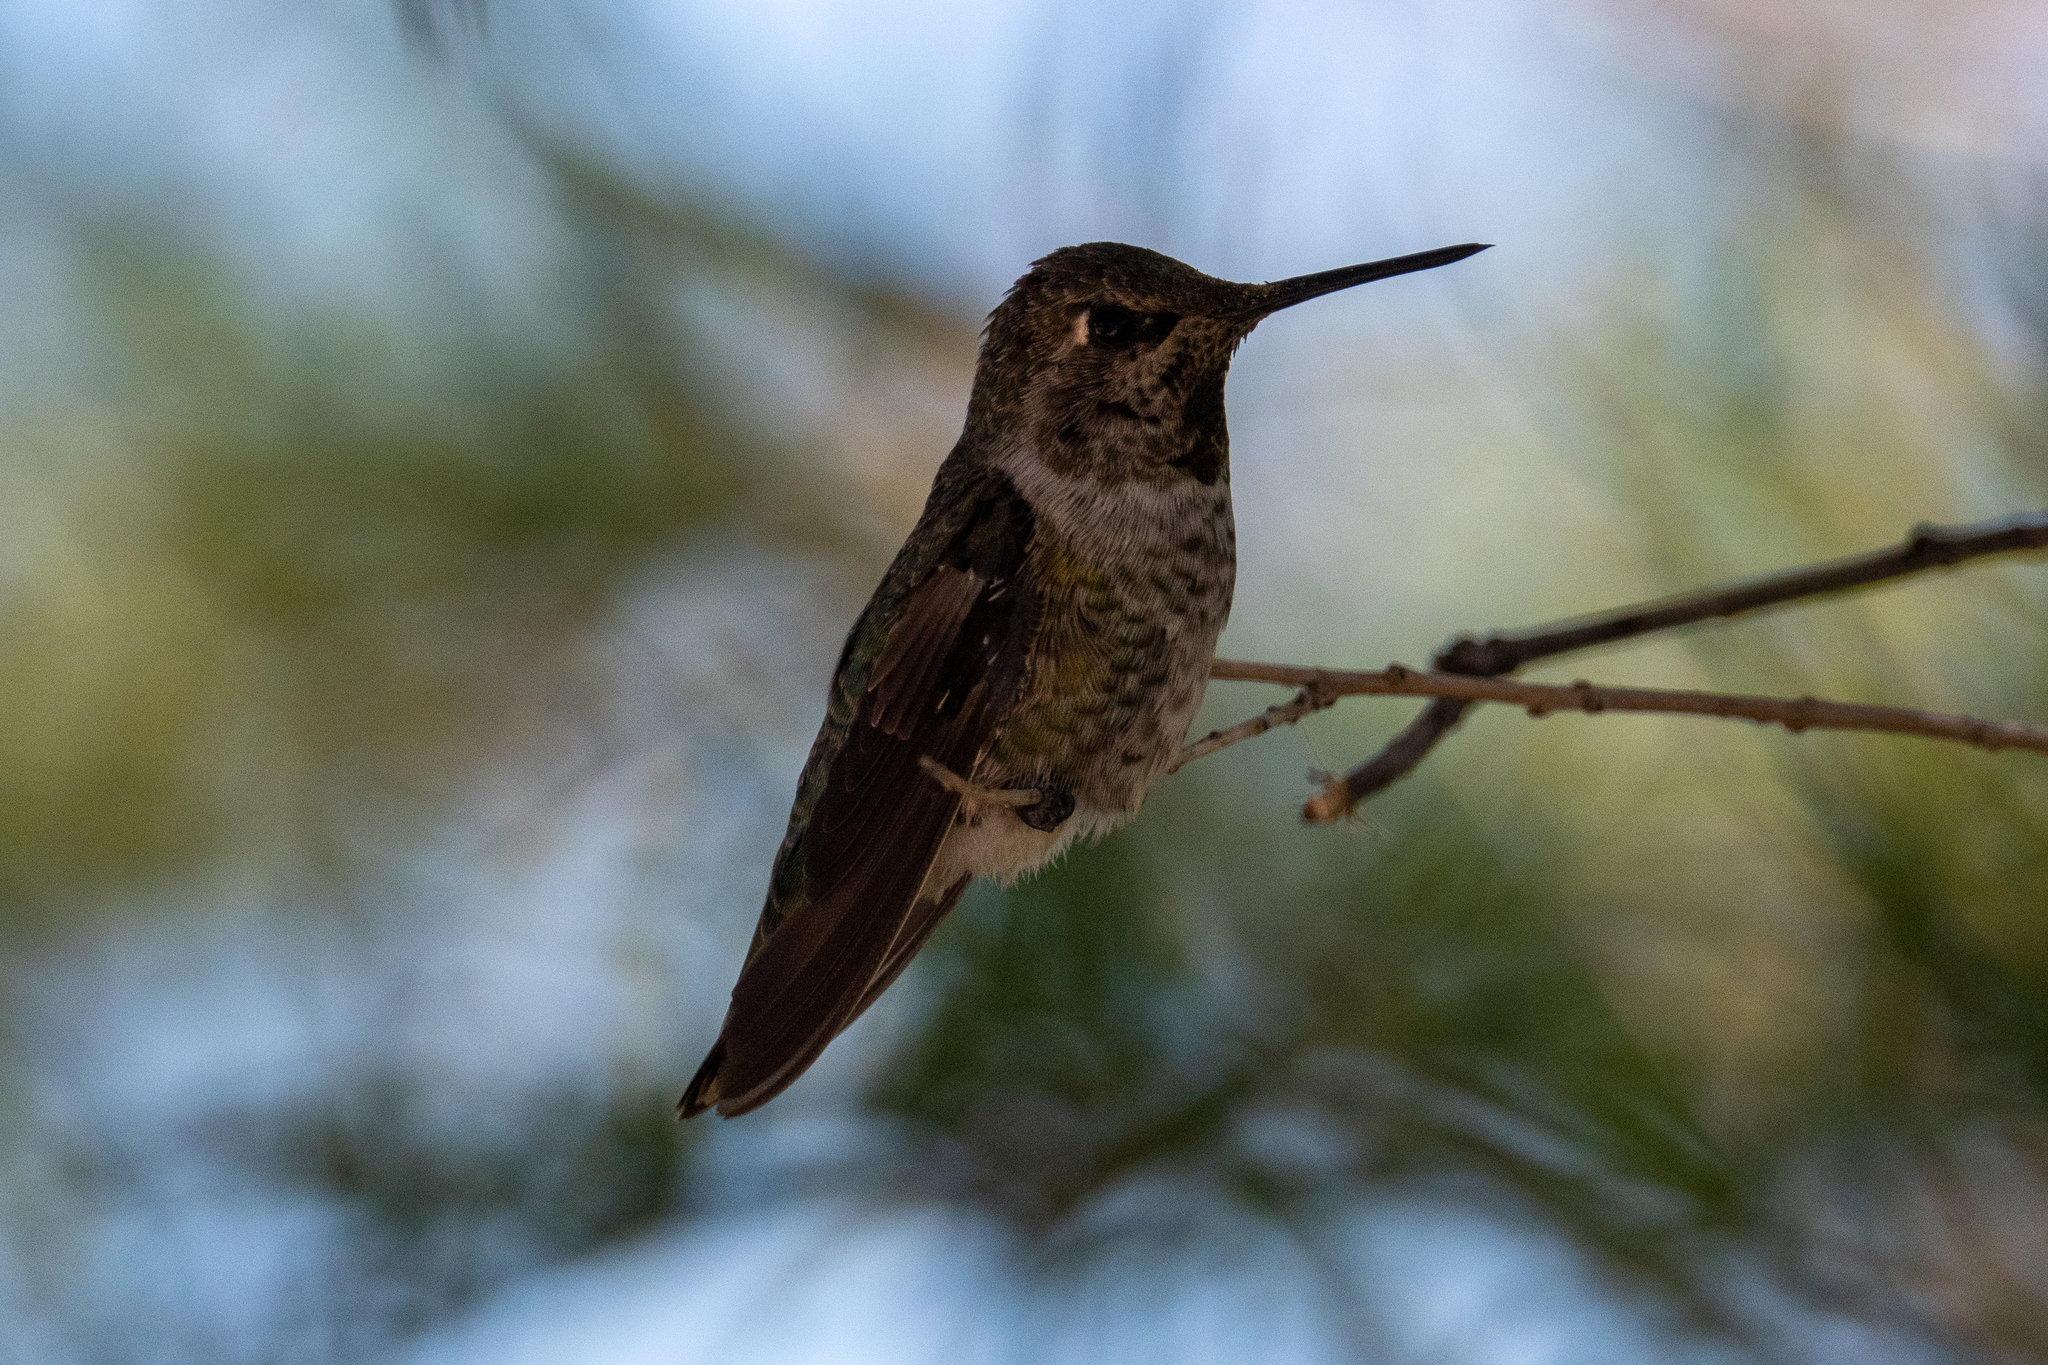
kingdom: Animalia
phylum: Chordata
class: Aves
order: Apodiformes
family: Trochilidae
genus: Calypte
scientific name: Calypte anna
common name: Anna's hummingbird
